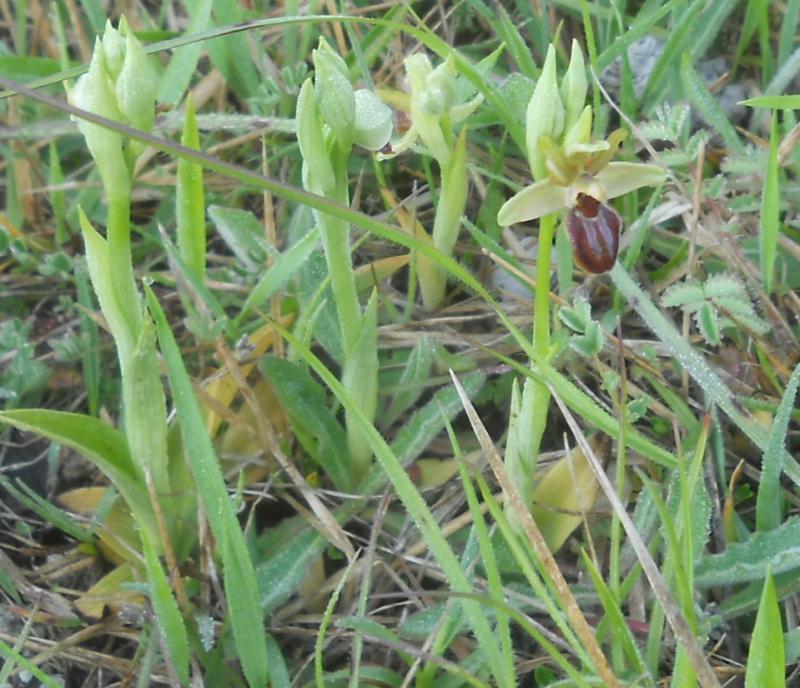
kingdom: Plantae
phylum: Tracheophyta
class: Liliopsida
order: Asparagales
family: Orchidaceae
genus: Ophrys
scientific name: Ophrys sphegodes
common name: Early spider-orchid
